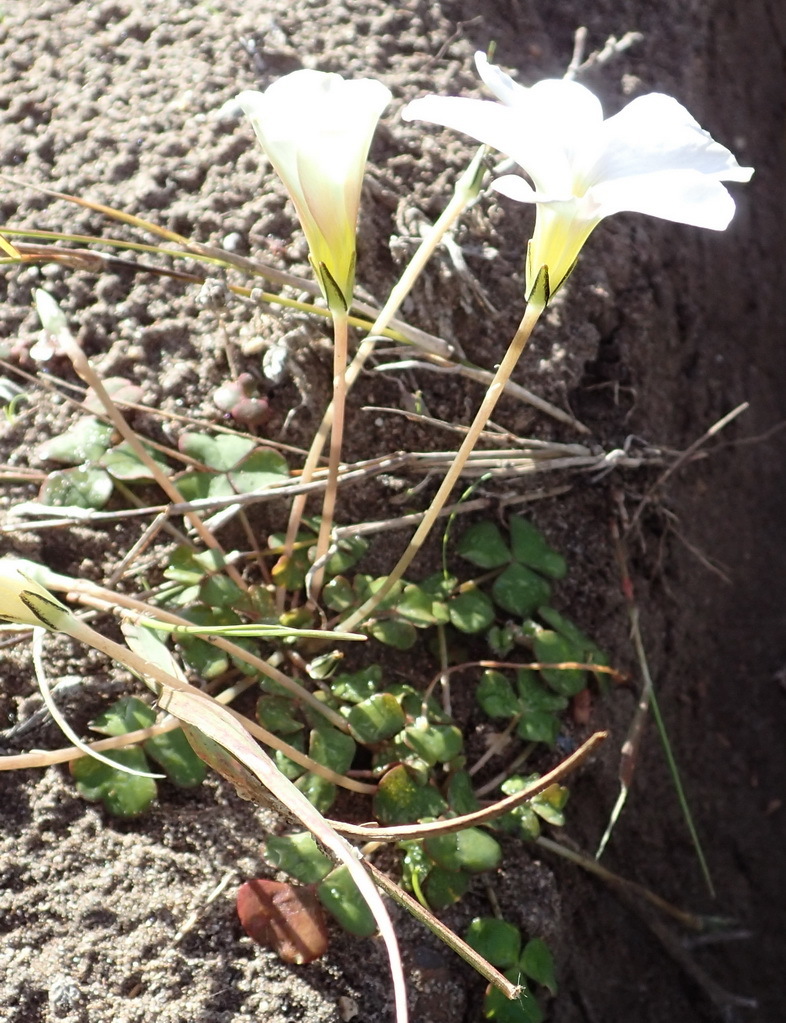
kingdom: Plantae
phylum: Tracheophyta
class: Magnoliopsida
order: Oxalidales
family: Oxalidaceae
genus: Oxalis
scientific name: Oxalis depressa
